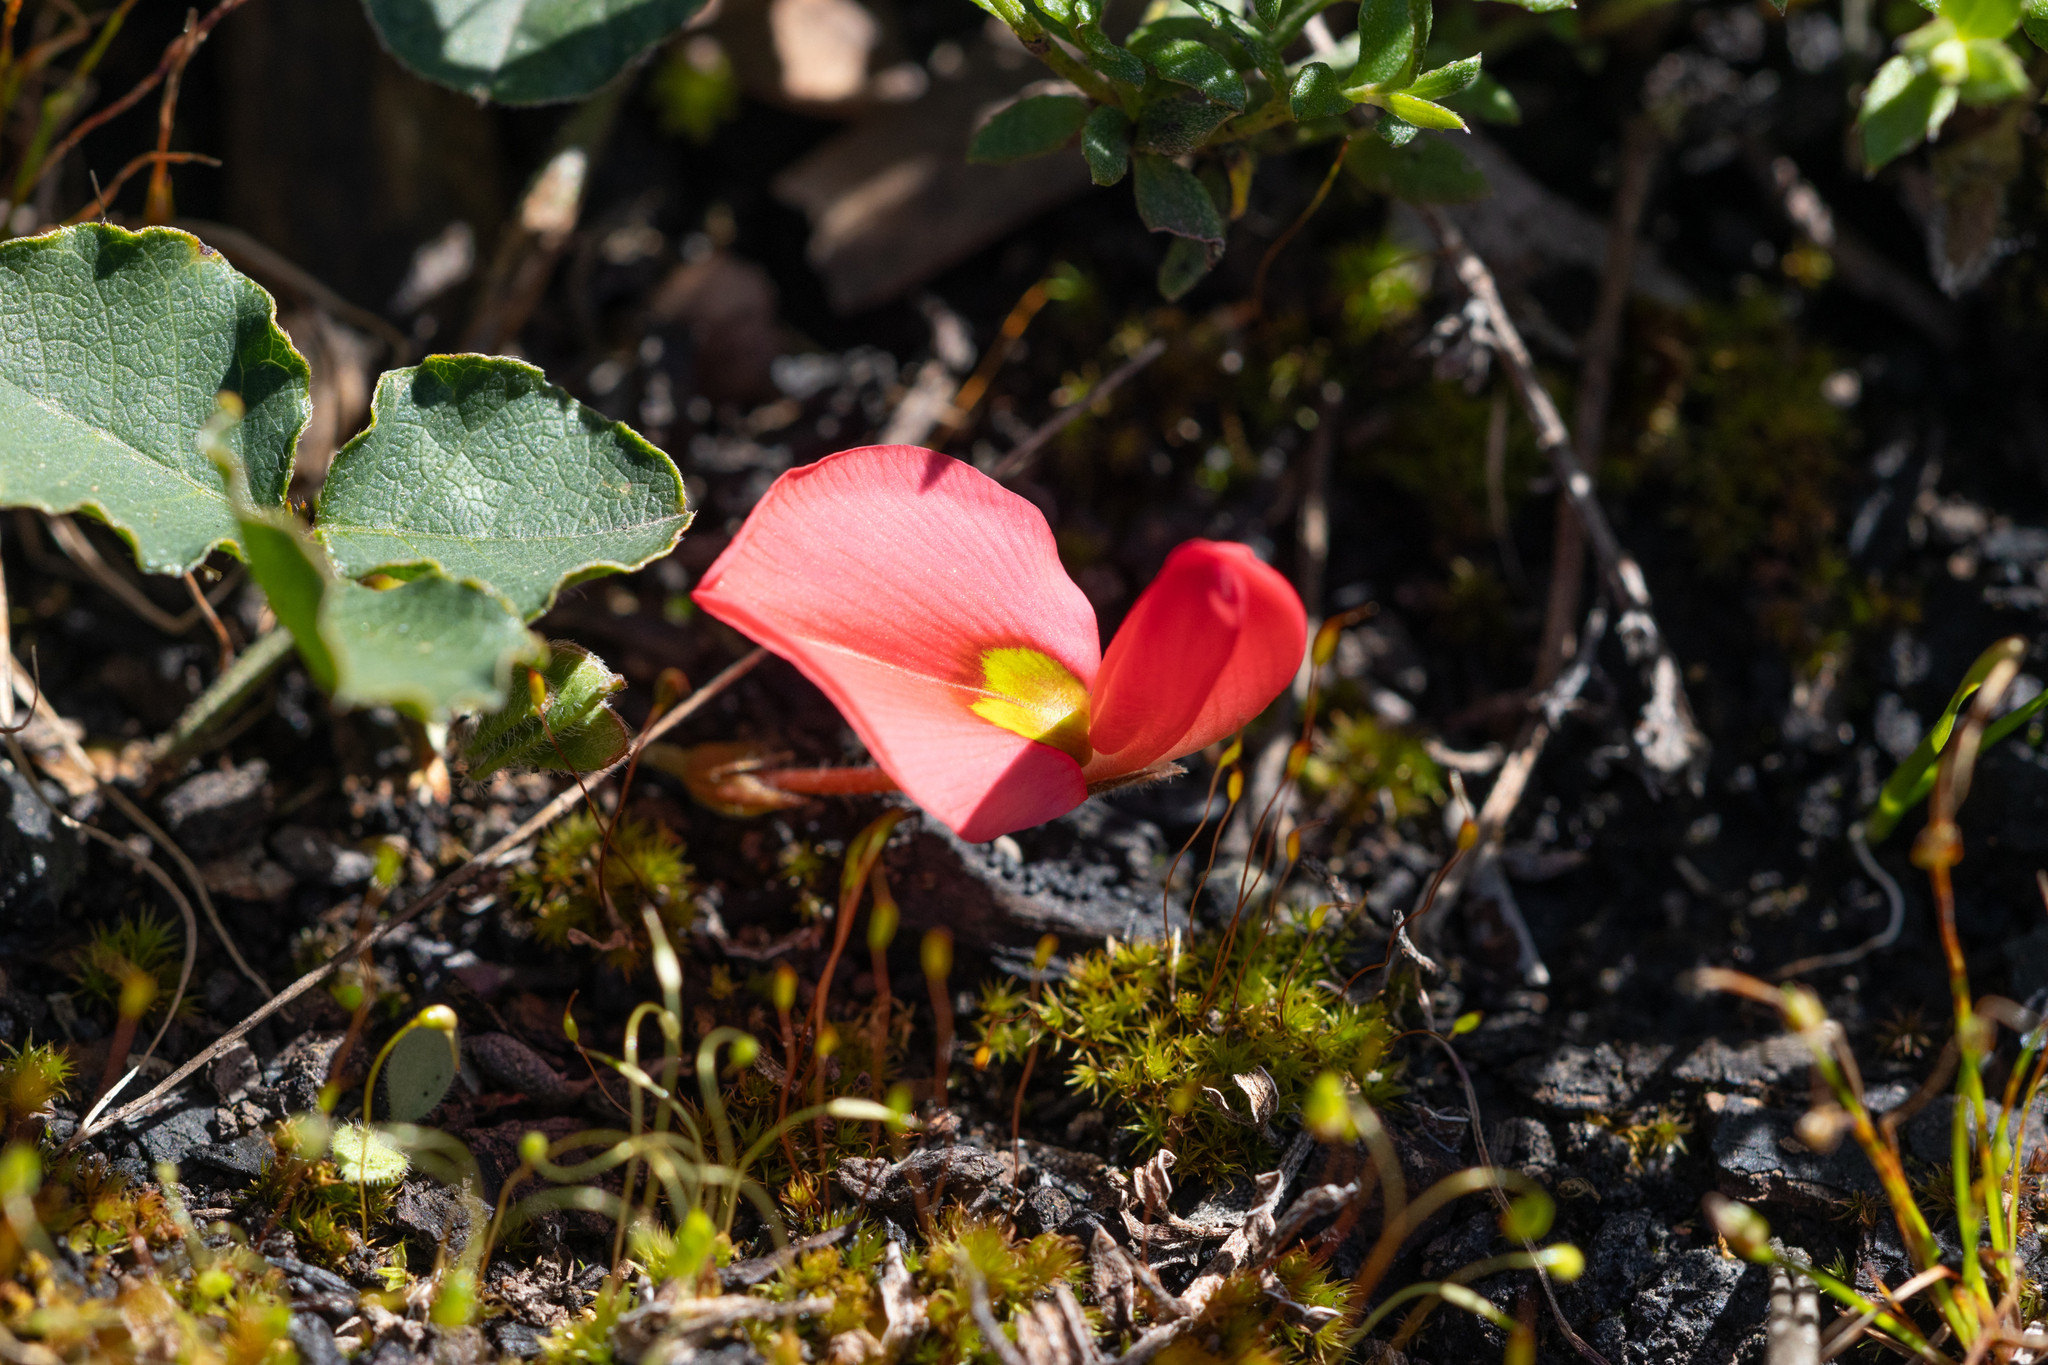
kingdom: Plantae
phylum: Tracheophyta
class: Magnoliopsida
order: Fabales
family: Fabaceae
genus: Kennedia
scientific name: Kennedia prostrata
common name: Running-postman
